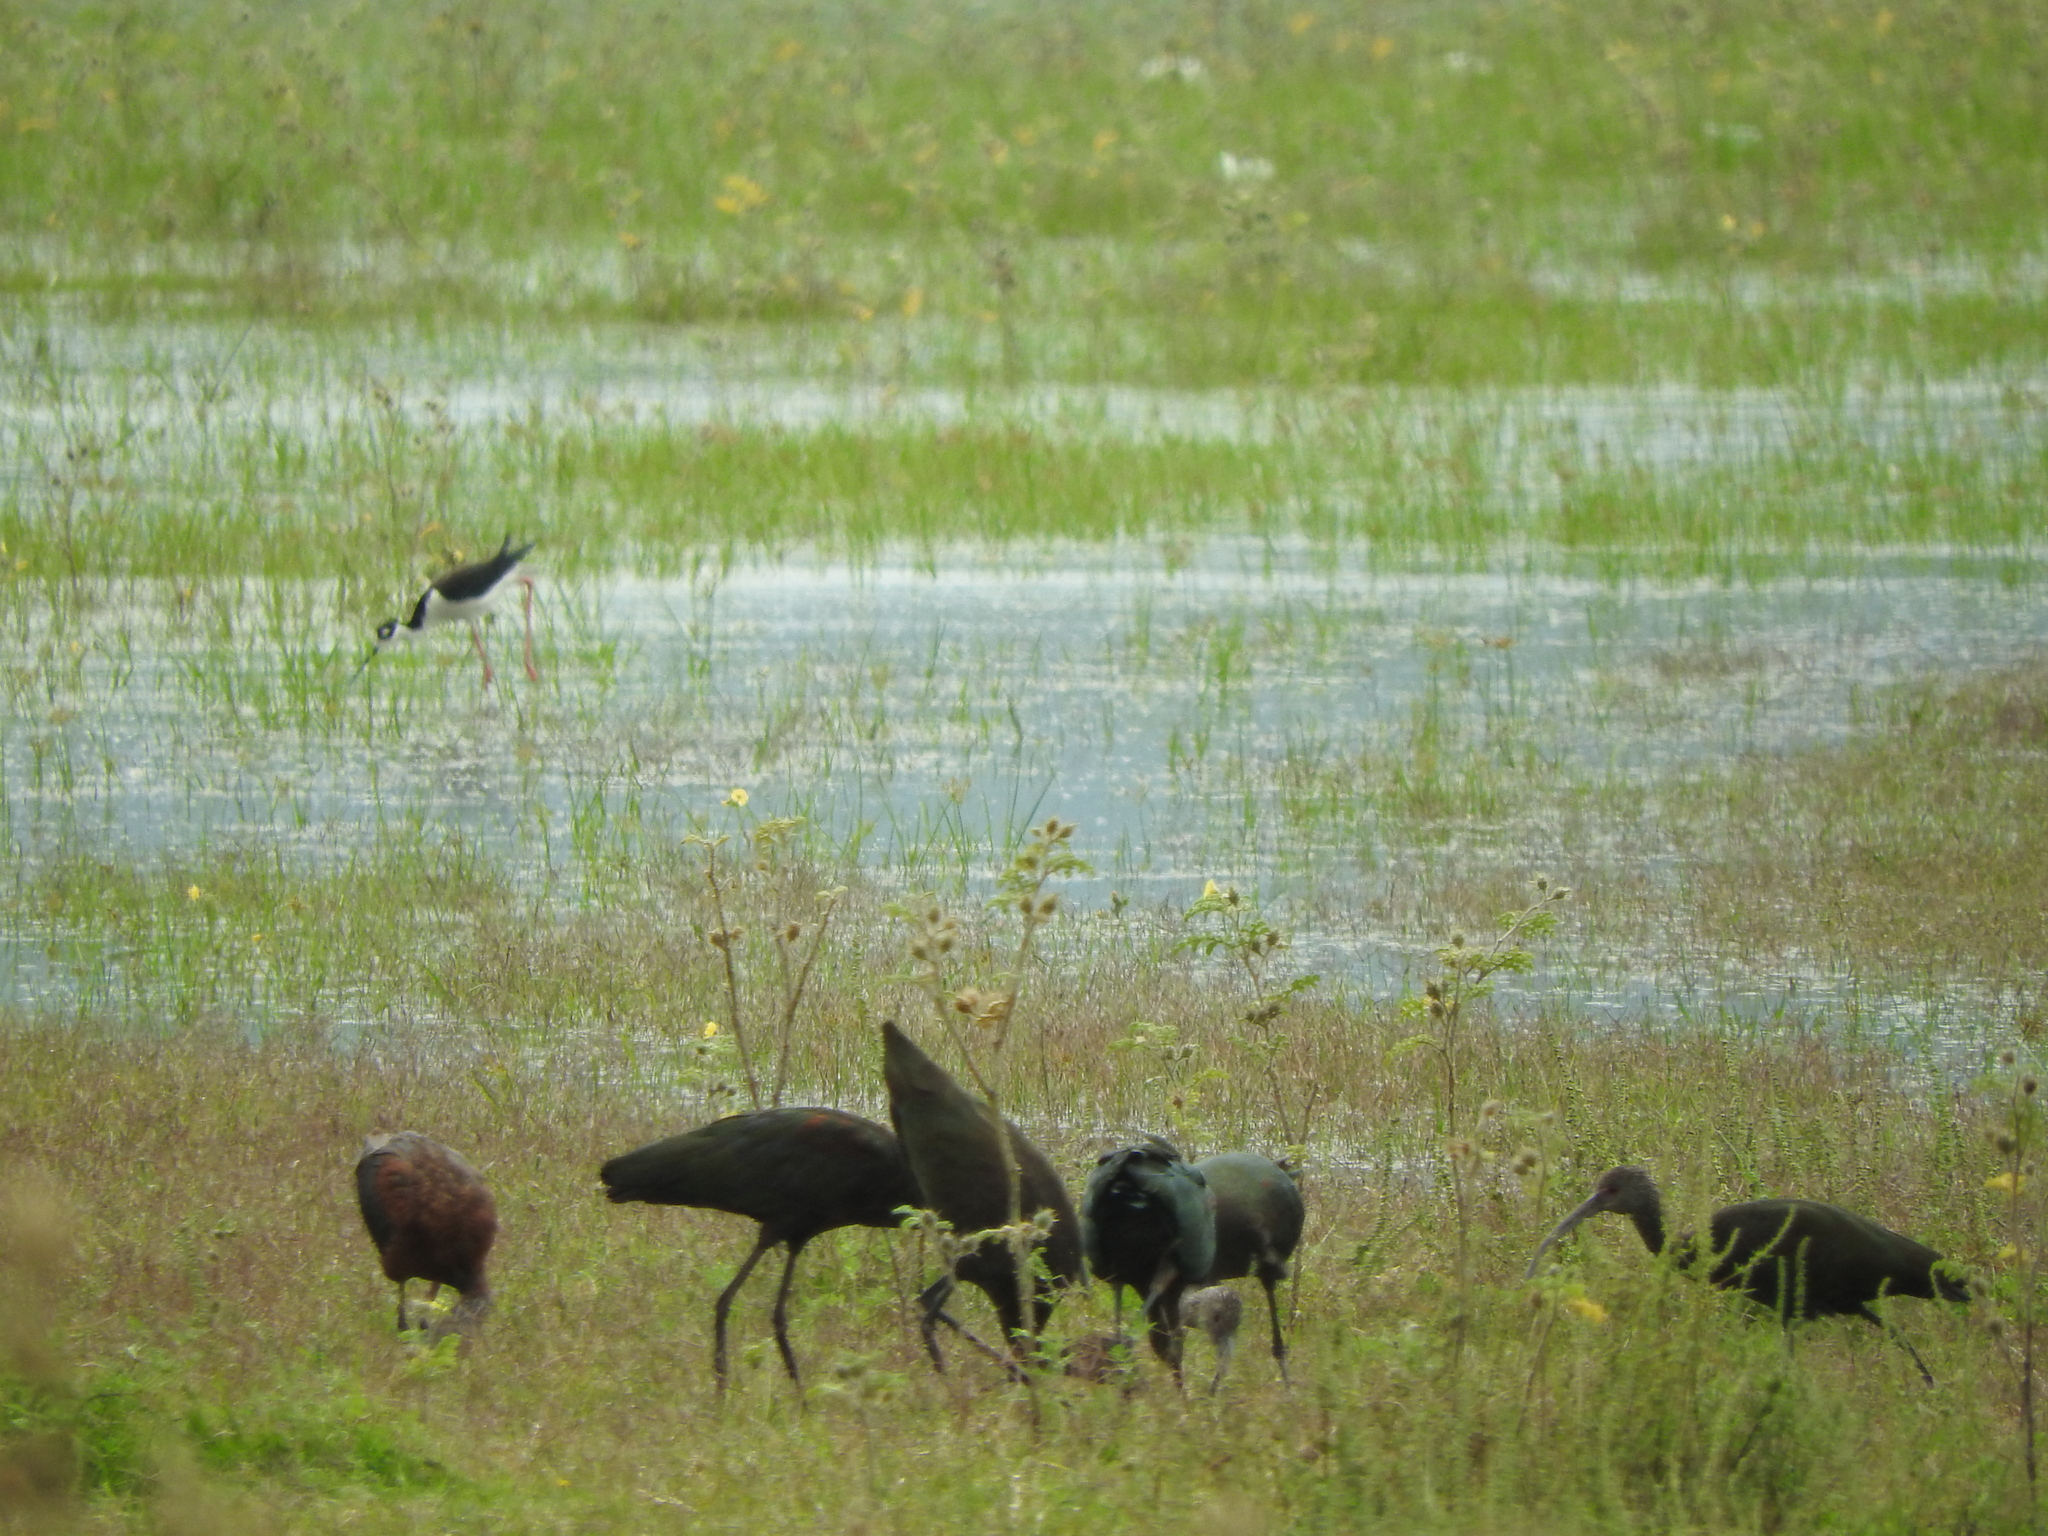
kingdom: Animalia
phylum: Chordata
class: Aves
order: Pelecaniformes
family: Threskiornithidae
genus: Plegadis
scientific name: Plegadis chihi
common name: White-faced ibis
